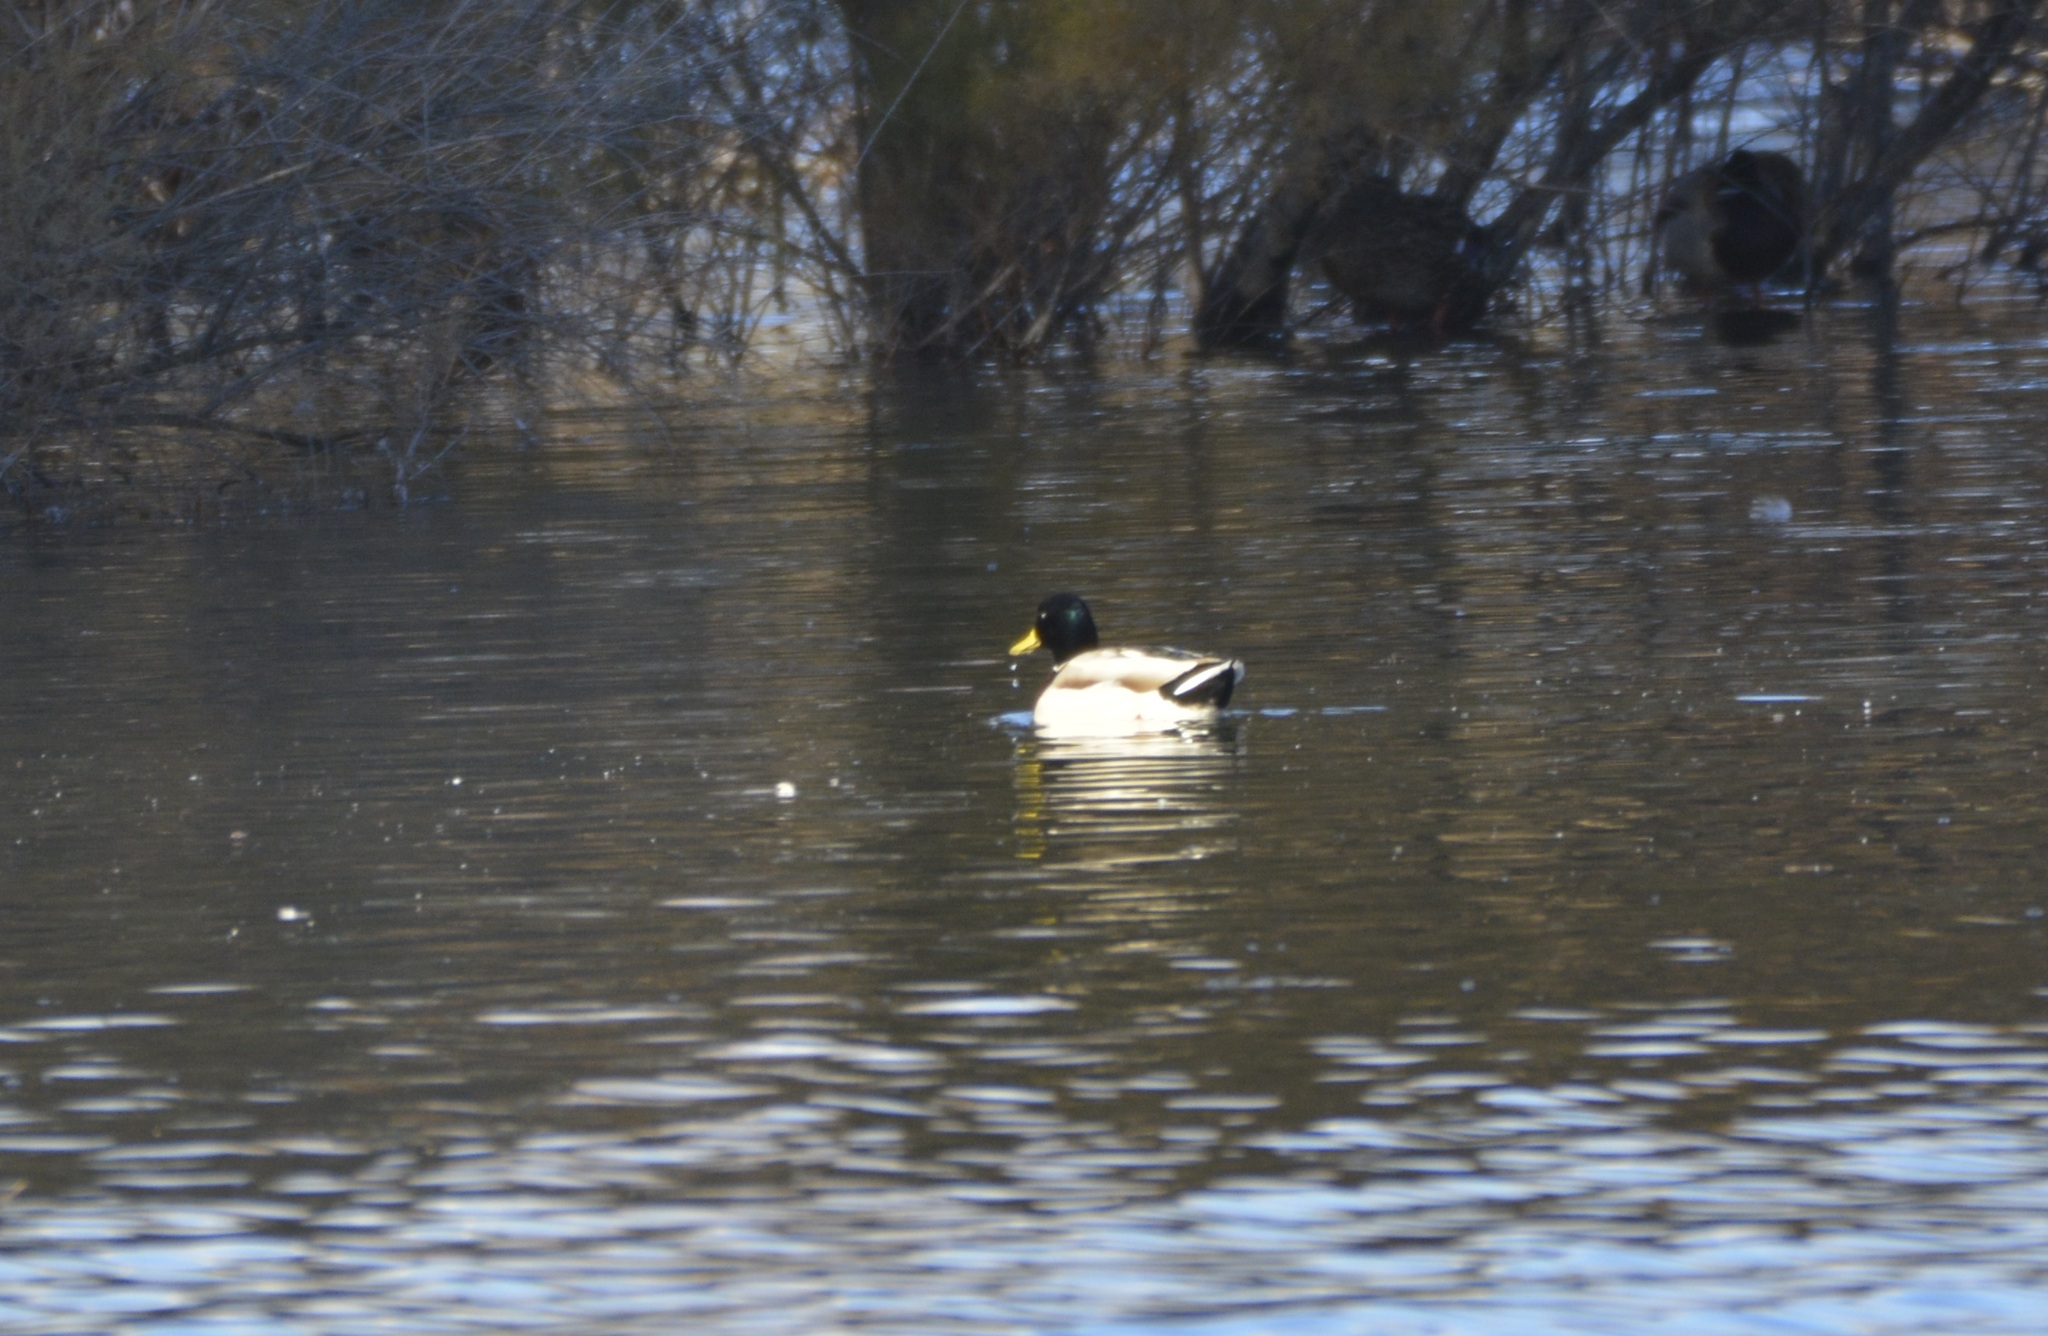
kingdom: Animalia
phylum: Chordata
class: Aves
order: Anseriformes
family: Anatidae
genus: Anas
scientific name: Anas platyrhynchos
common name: Mallard
